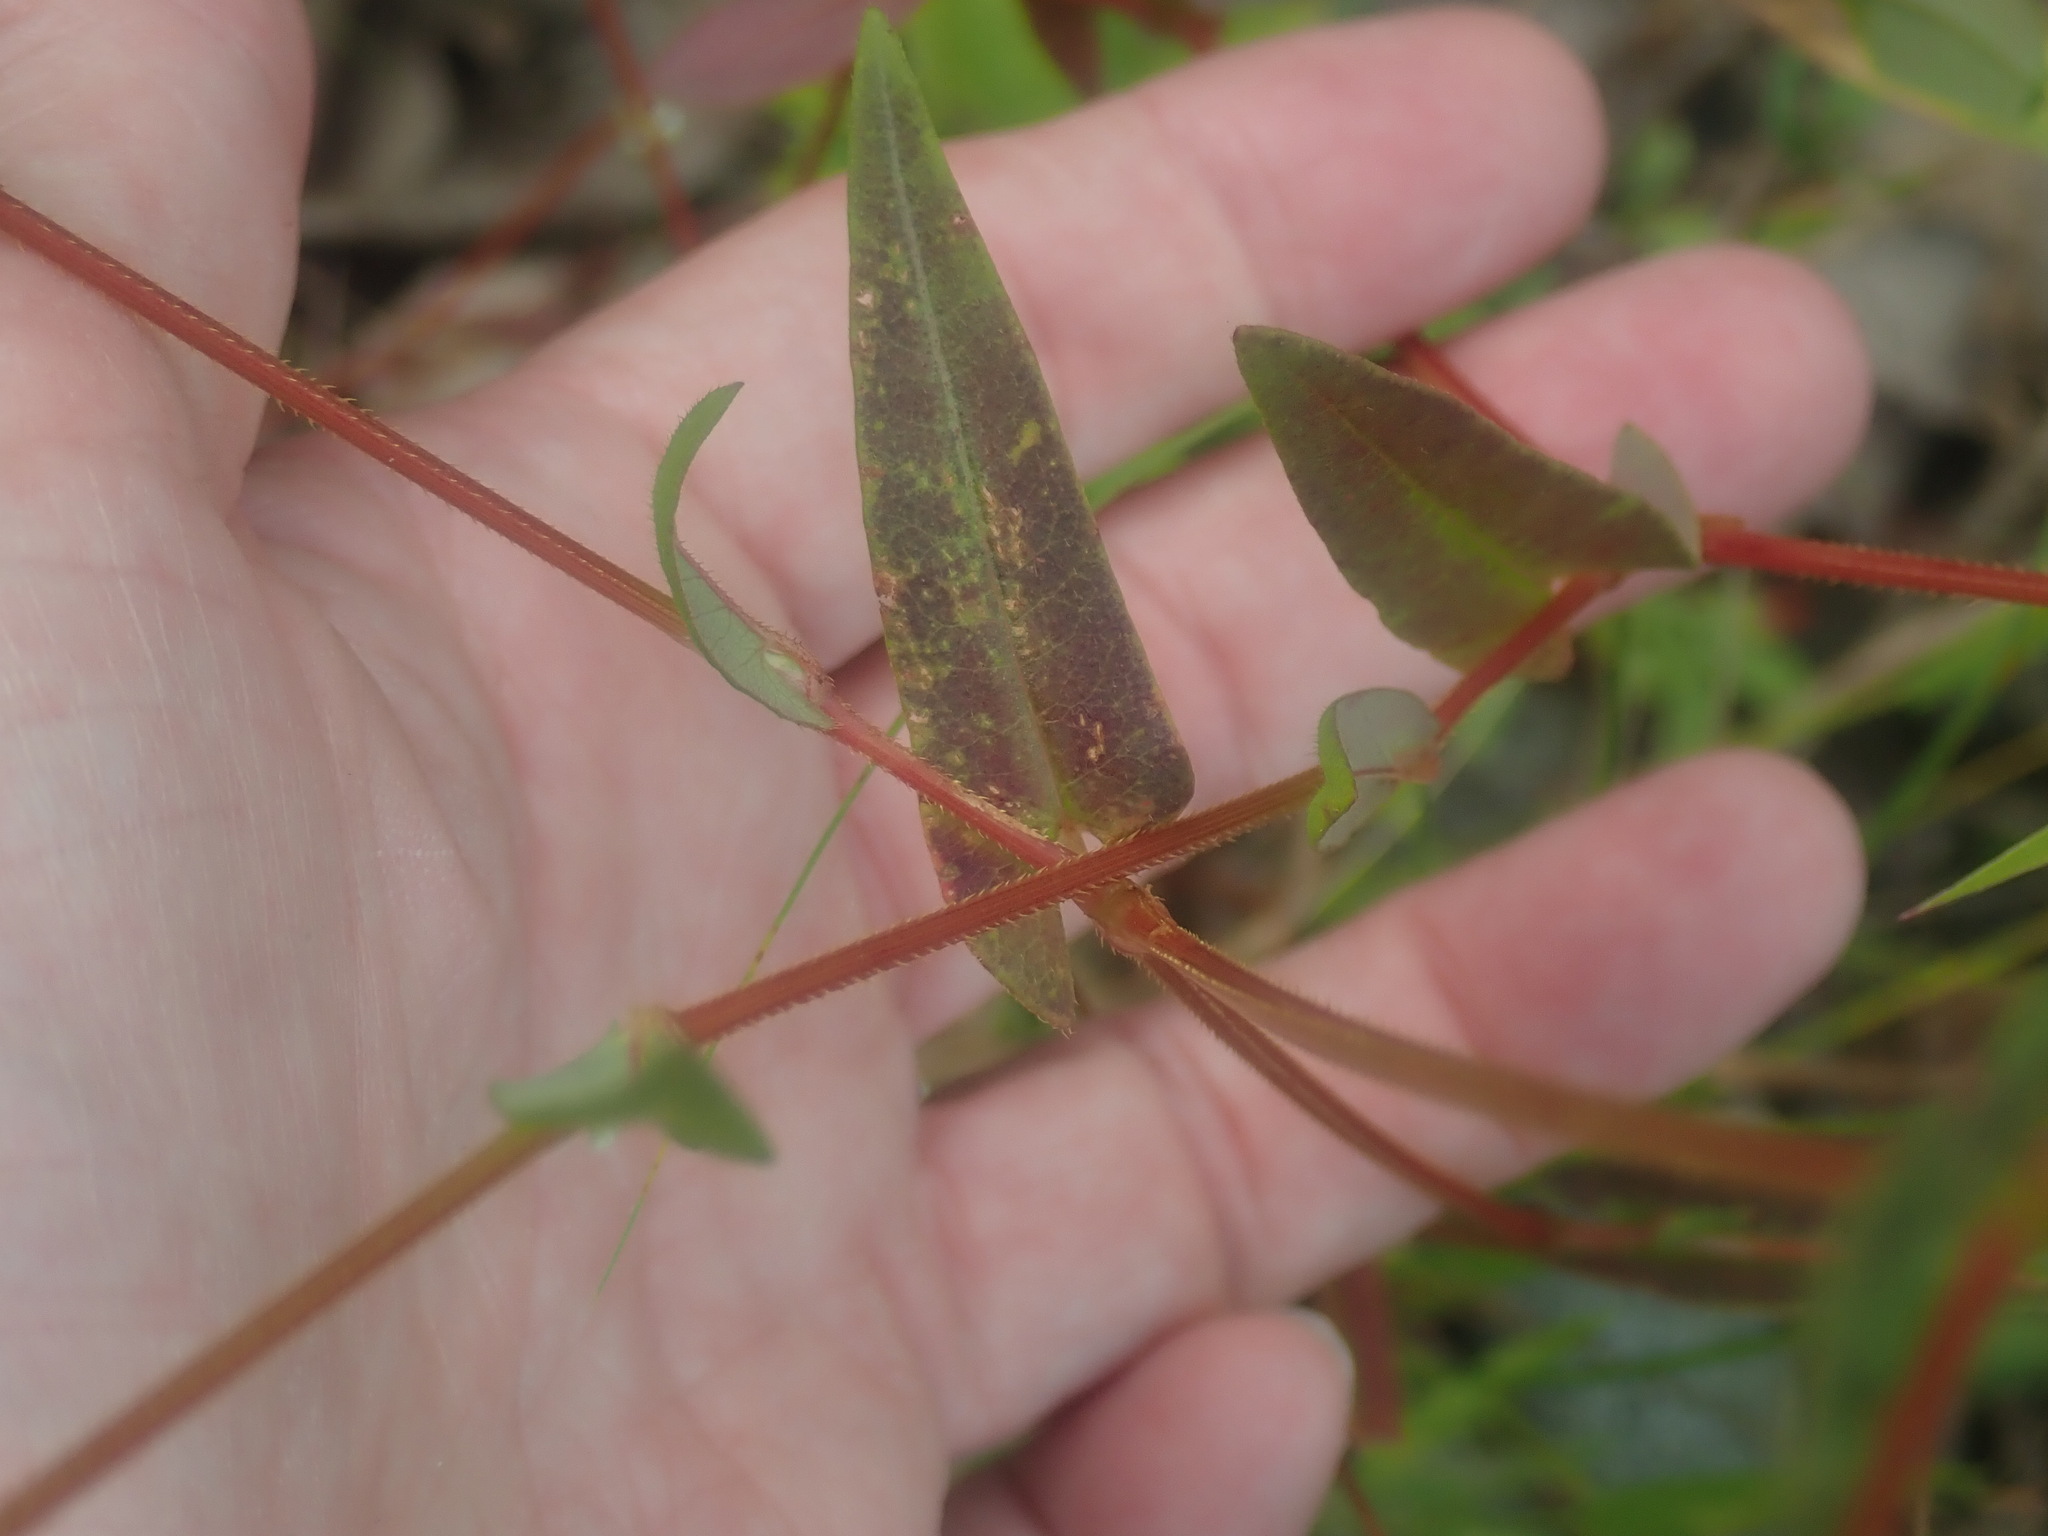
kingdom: Plantae
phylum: Tracheophyta
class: Magnoliopsida
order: Caryophyllales
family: Polygonaceae
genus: Persicaria
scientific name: Persicaria sagittata
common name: American tearthumb
